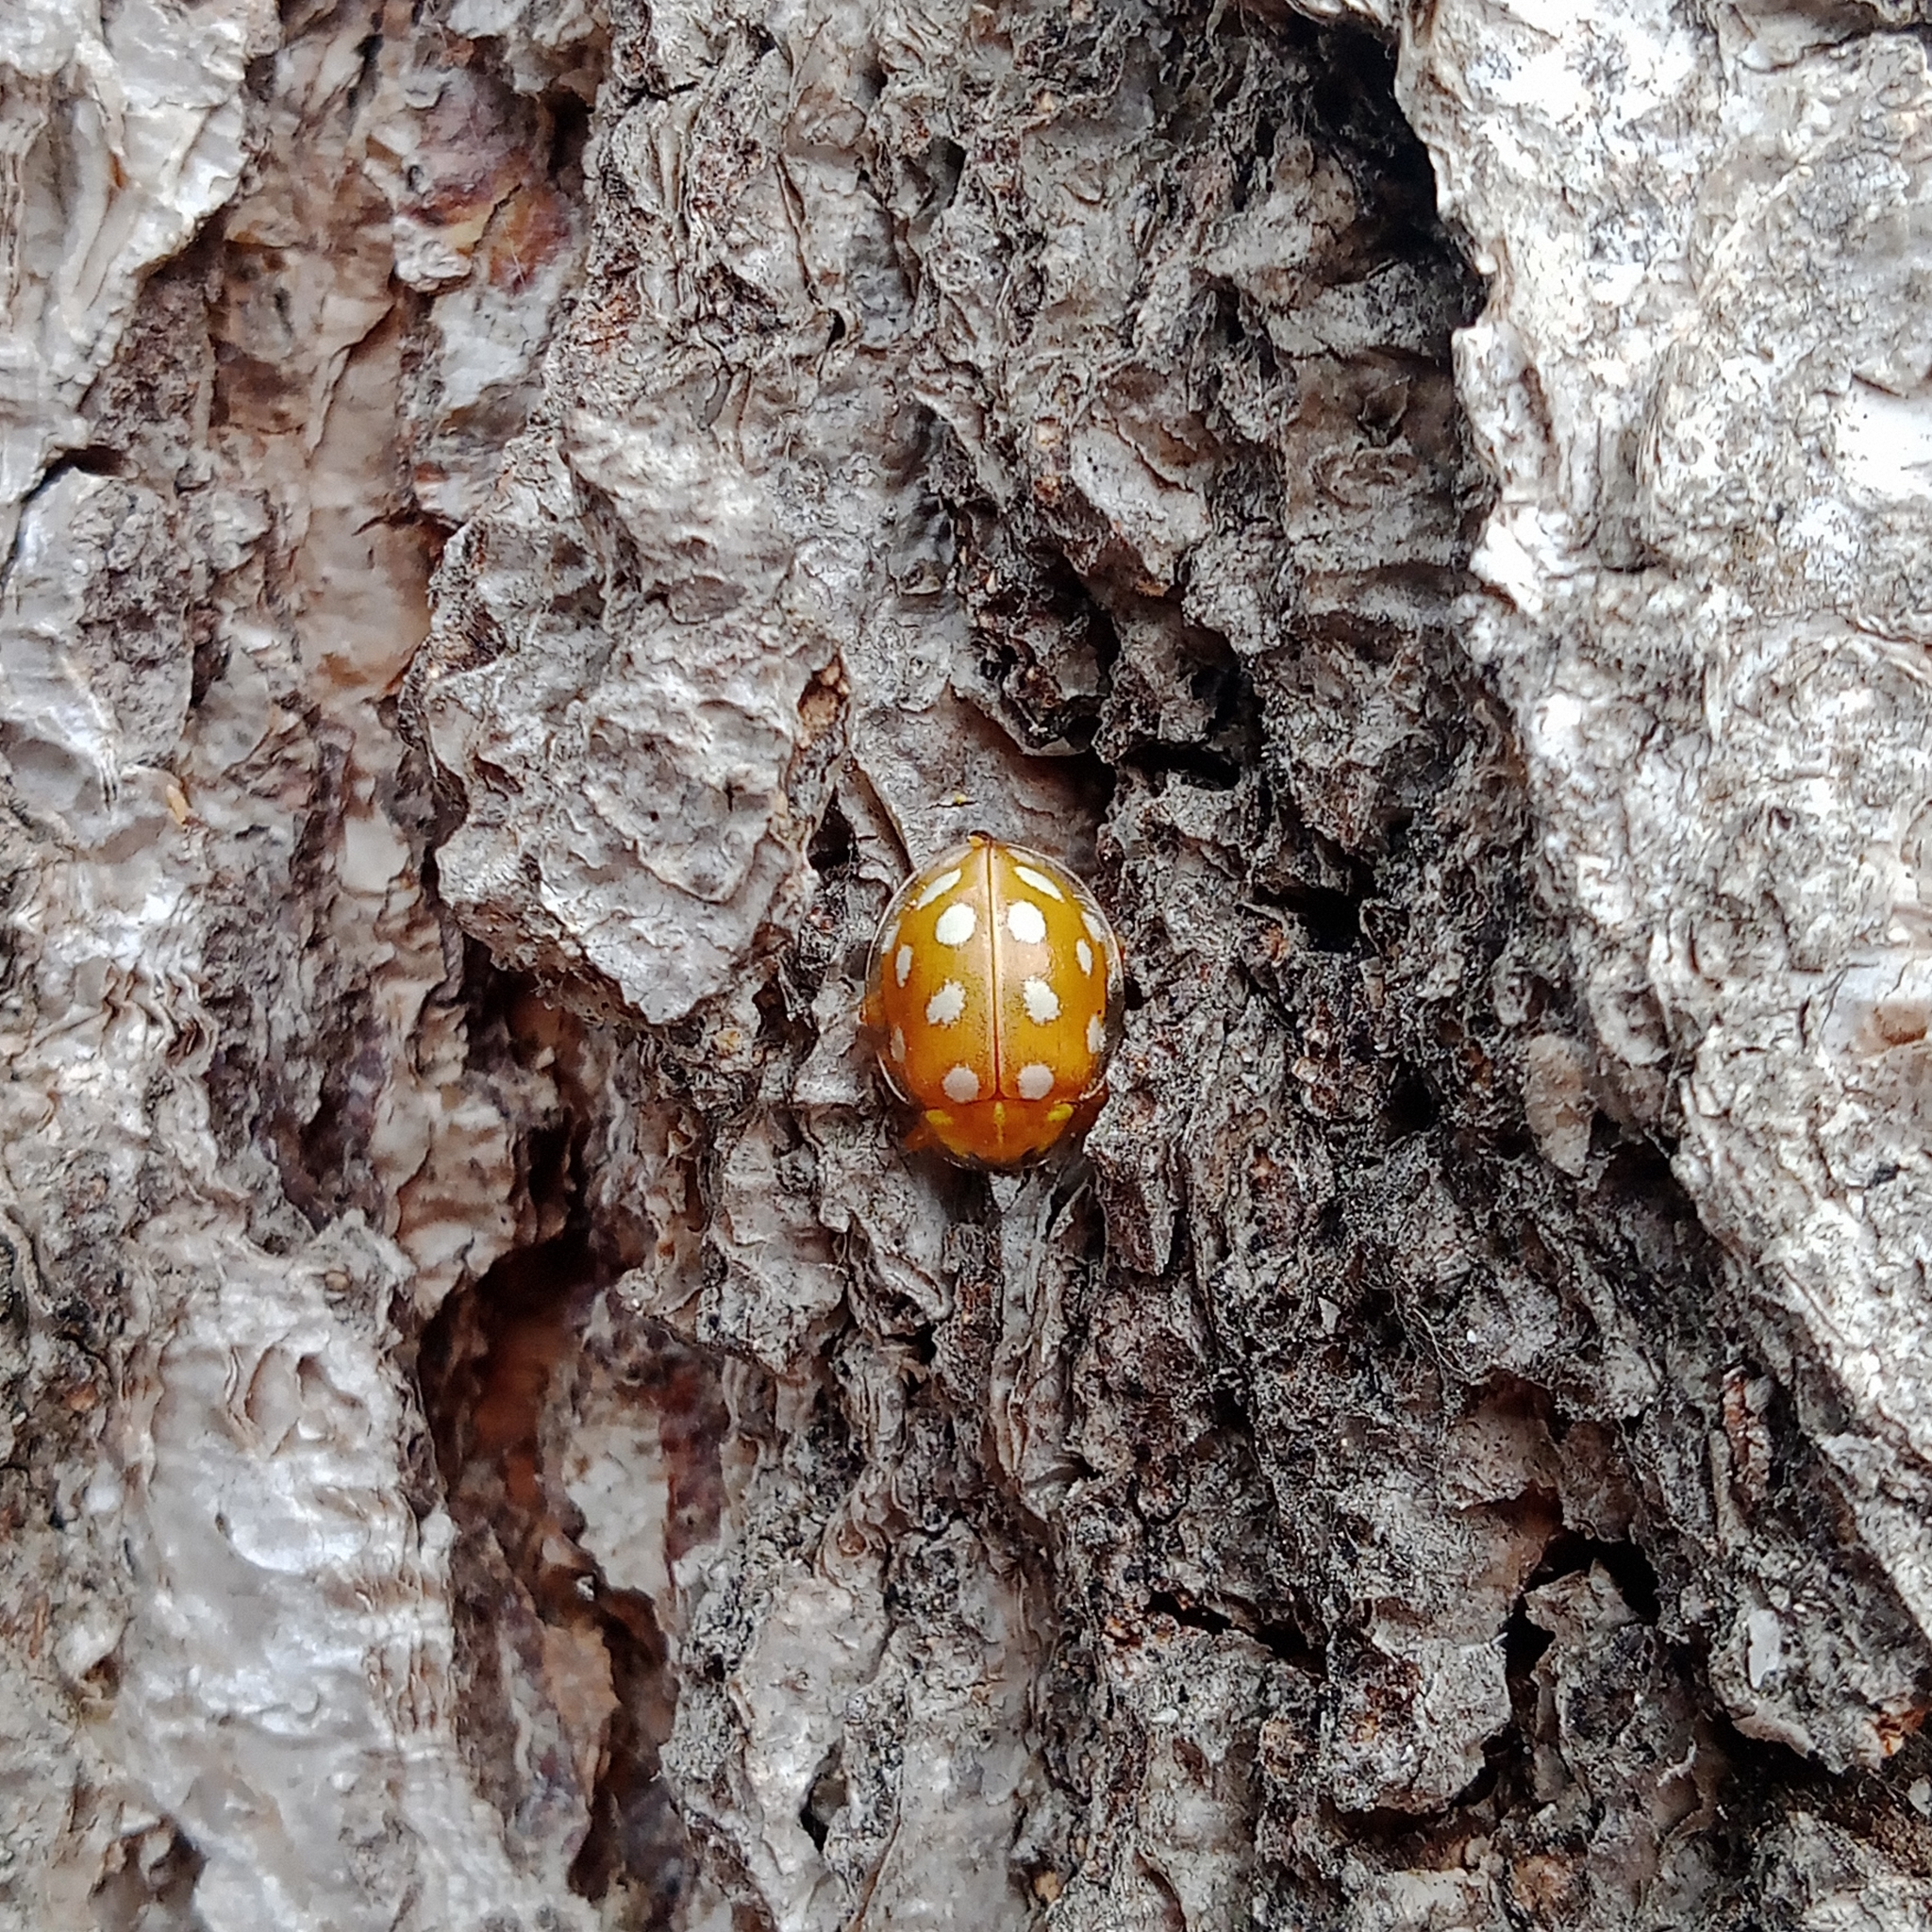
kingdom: Animalia
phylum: Arthropoda
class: Insecta
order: Coleoptera
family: Coccinellidae
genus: Halyzia
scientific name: Halyzia sedecimguttata
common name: Orange ladybird
